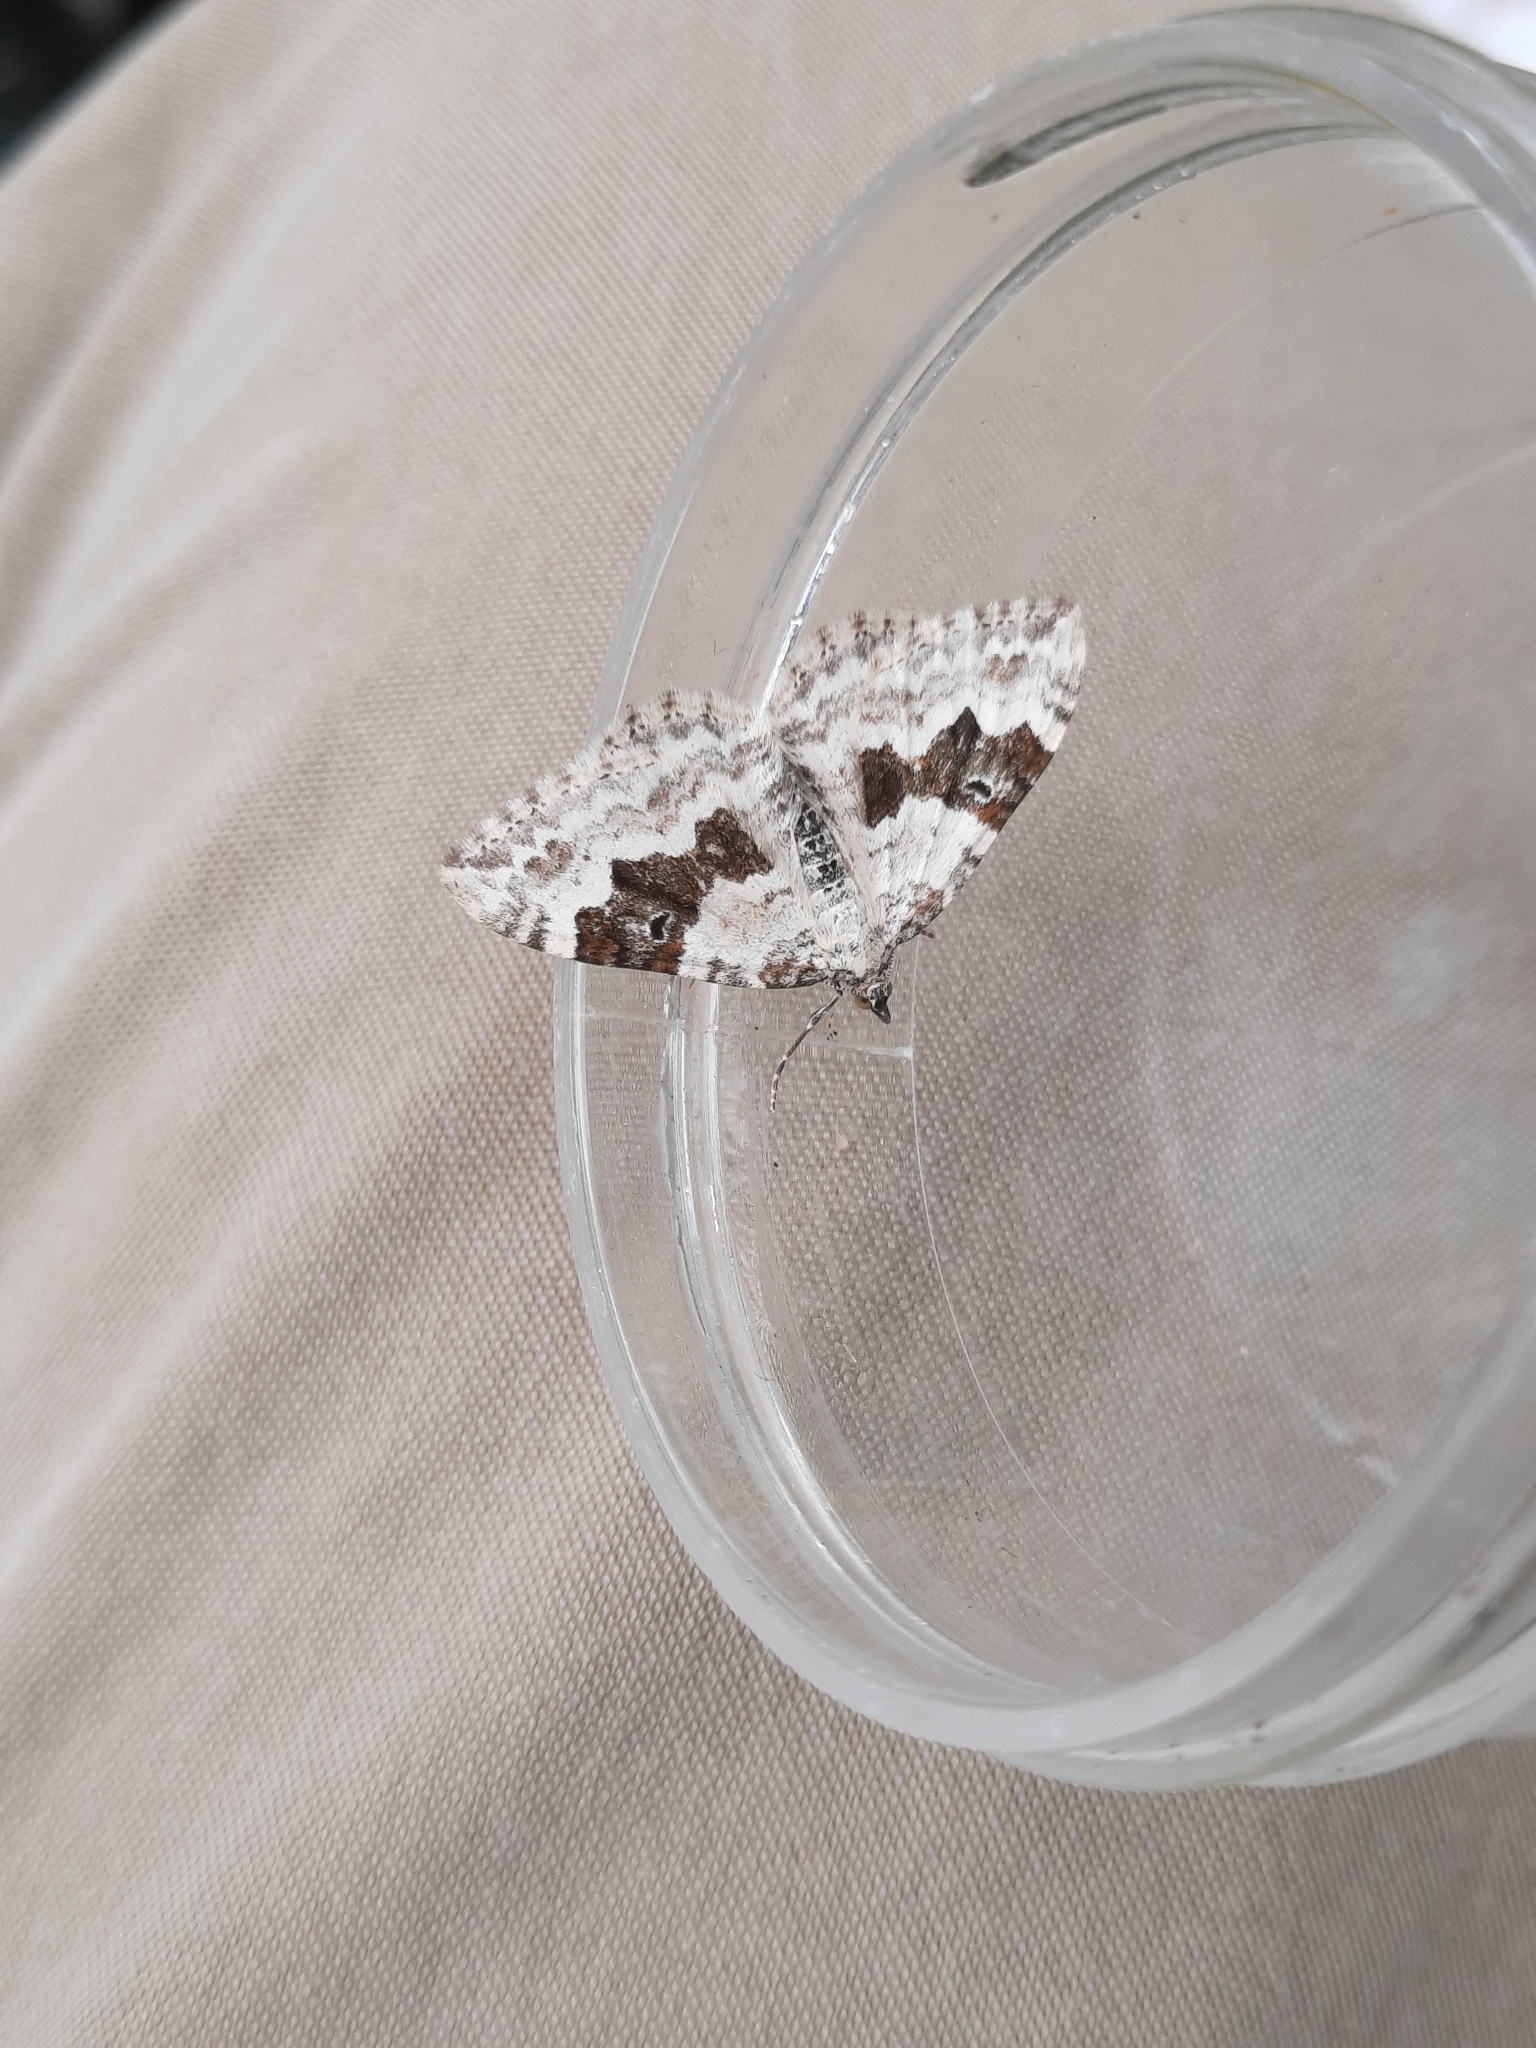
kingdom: Animalia
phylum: Arthropoda
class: Insecta
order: Lepidoptera
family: Geometridae
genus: Xanthorhoe
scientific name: Xanthorhoe montanata
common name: Silver-ground carpet
